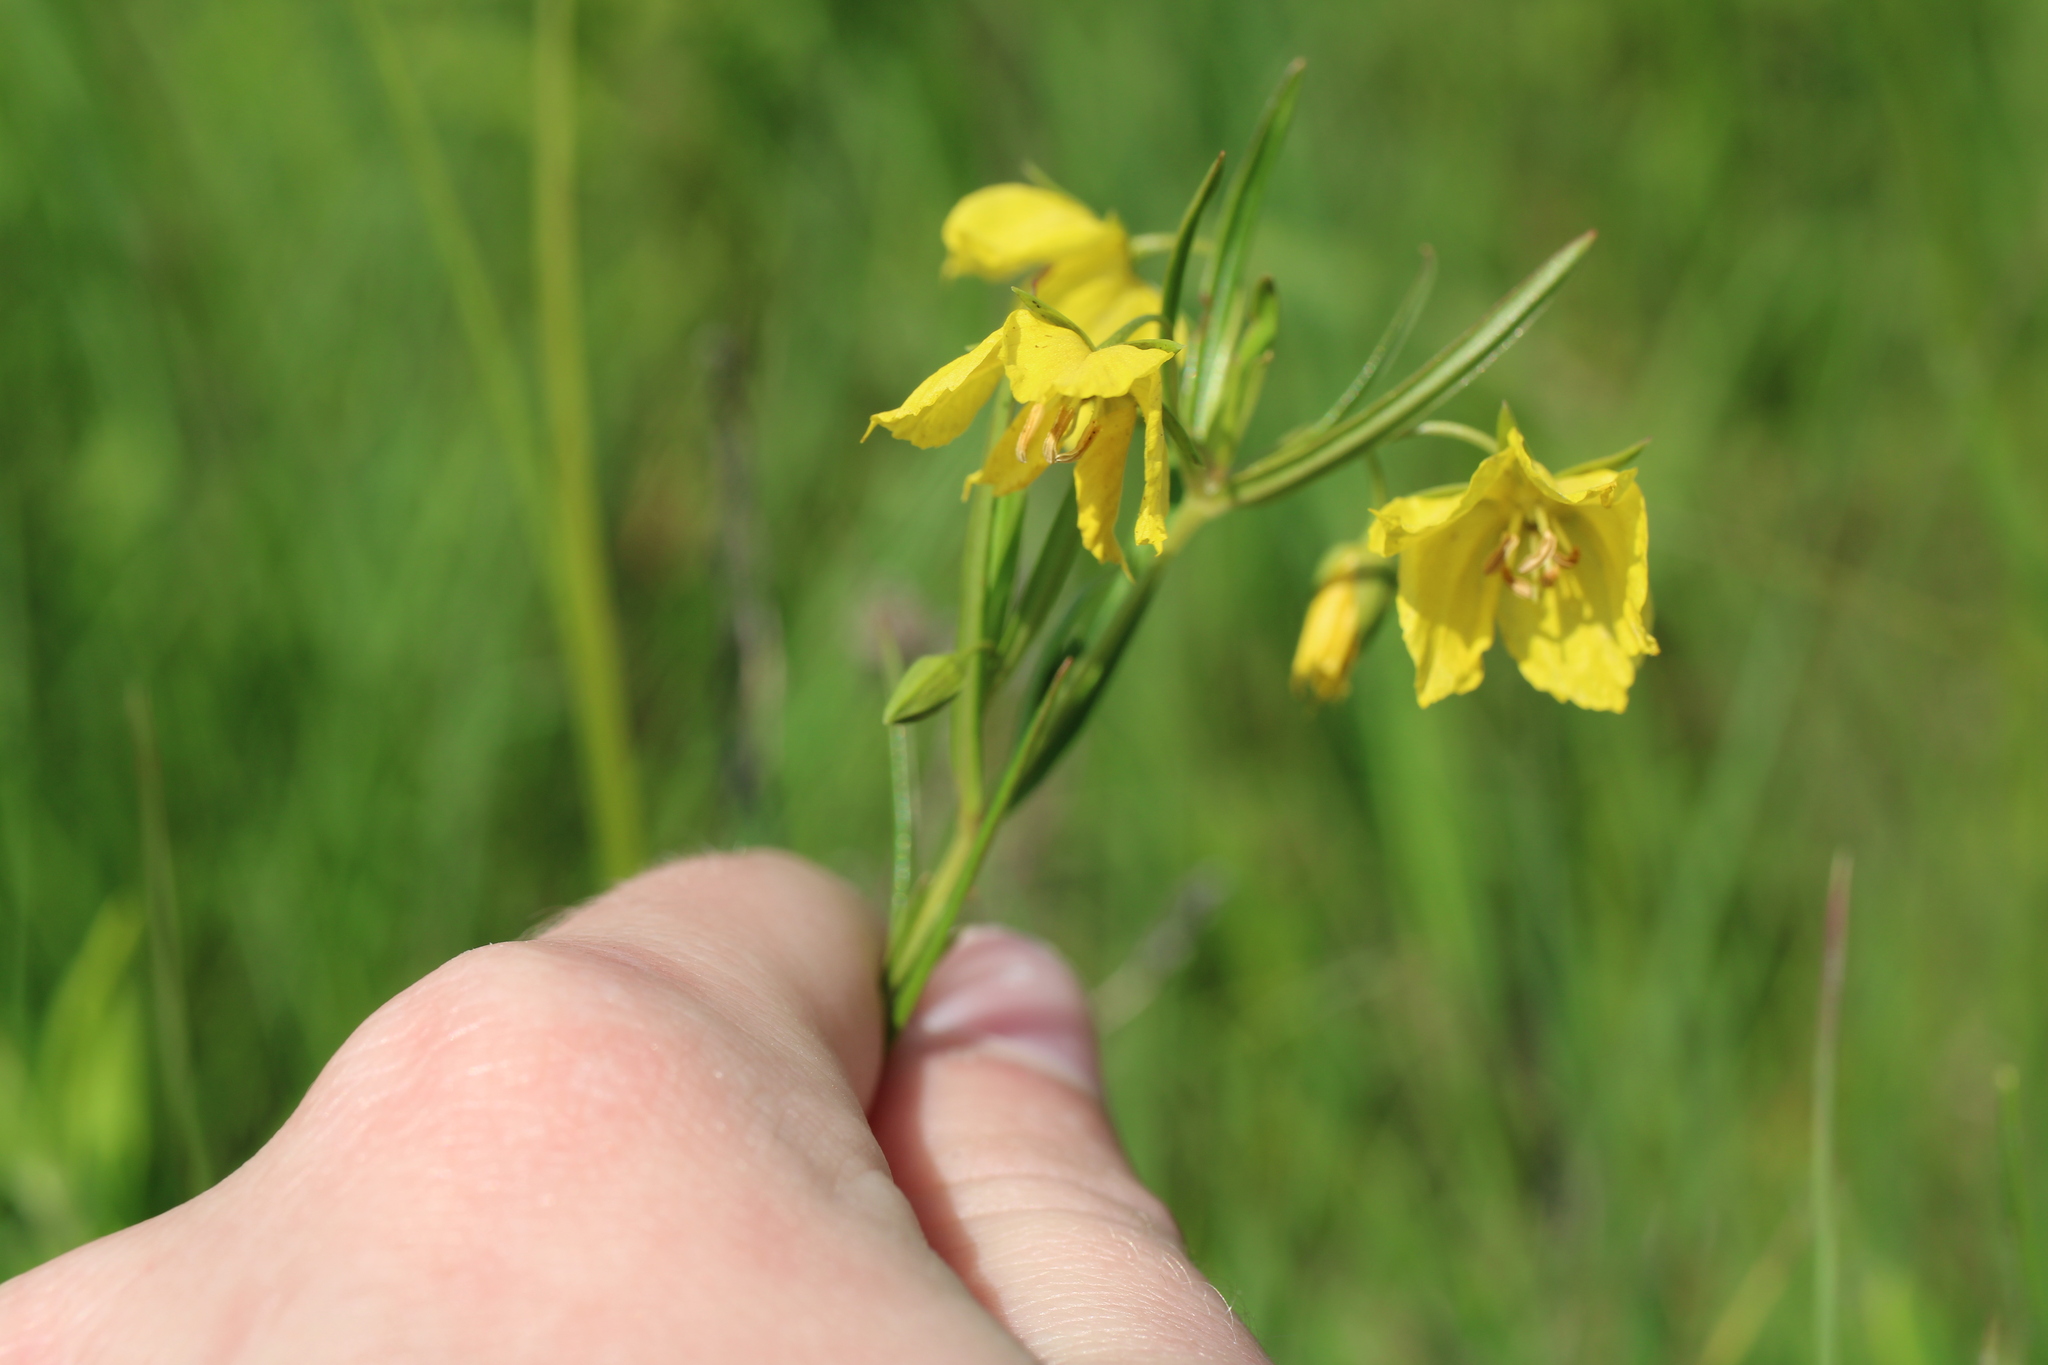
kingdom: Plantae
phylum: Tracheophyta
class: Magnoliopsida
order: Ericales
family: Primulaceae
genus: Lysimachia
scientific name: Lysimachia quadriflora
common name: Four-flowered loosestrife
